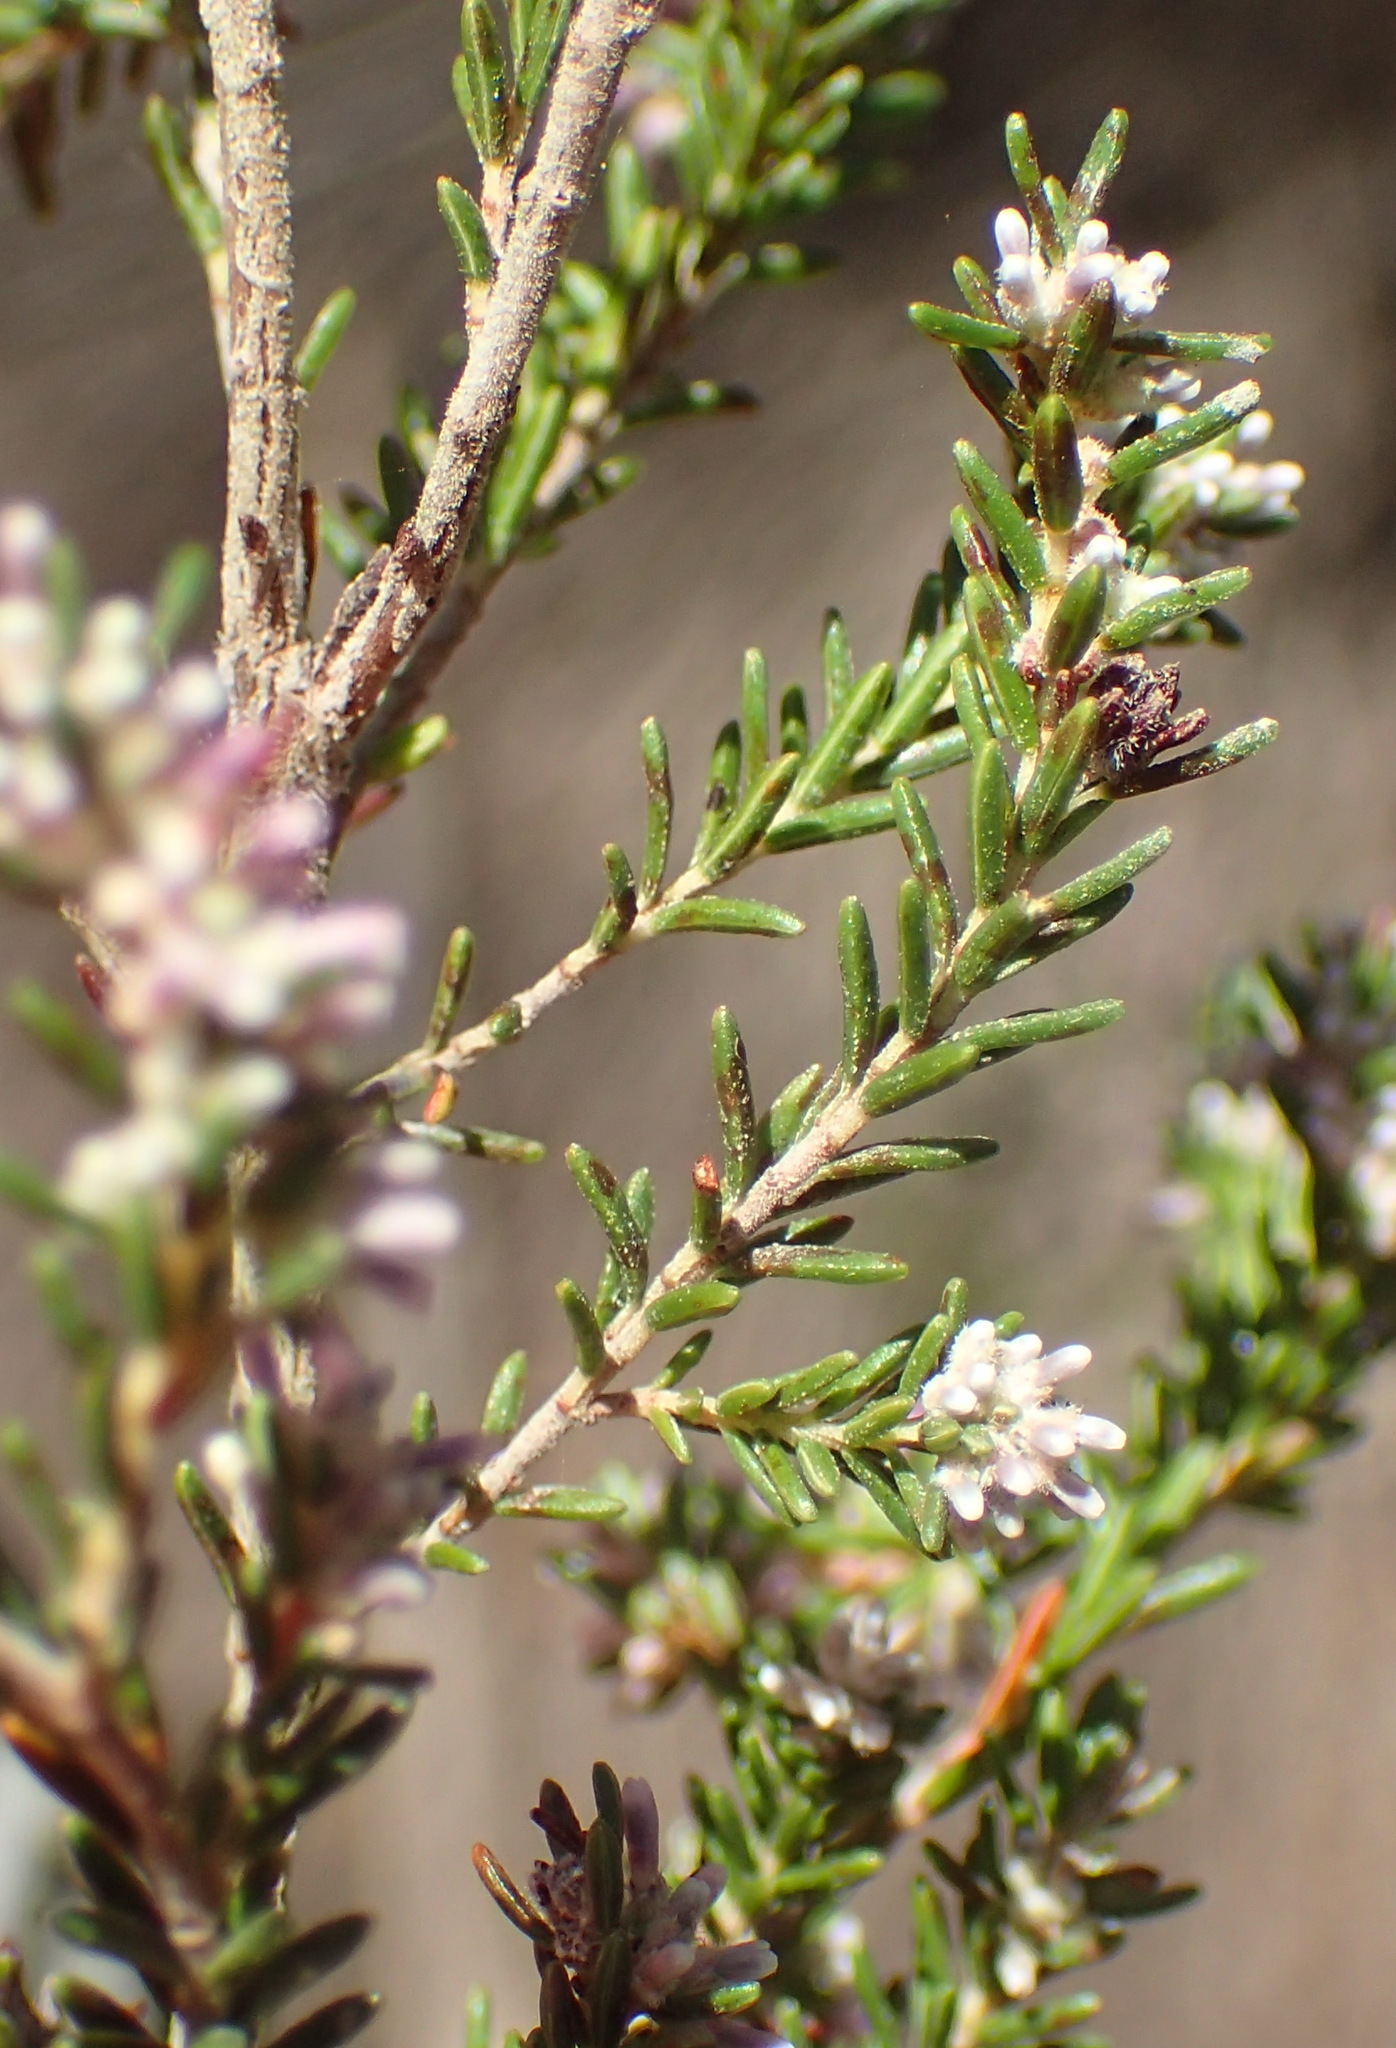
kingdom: Plantae
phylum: Tracheophyta
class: Magnoliopsida
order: Ericales
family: Ericaceae
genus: Erica
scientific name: Erica uberiflora
